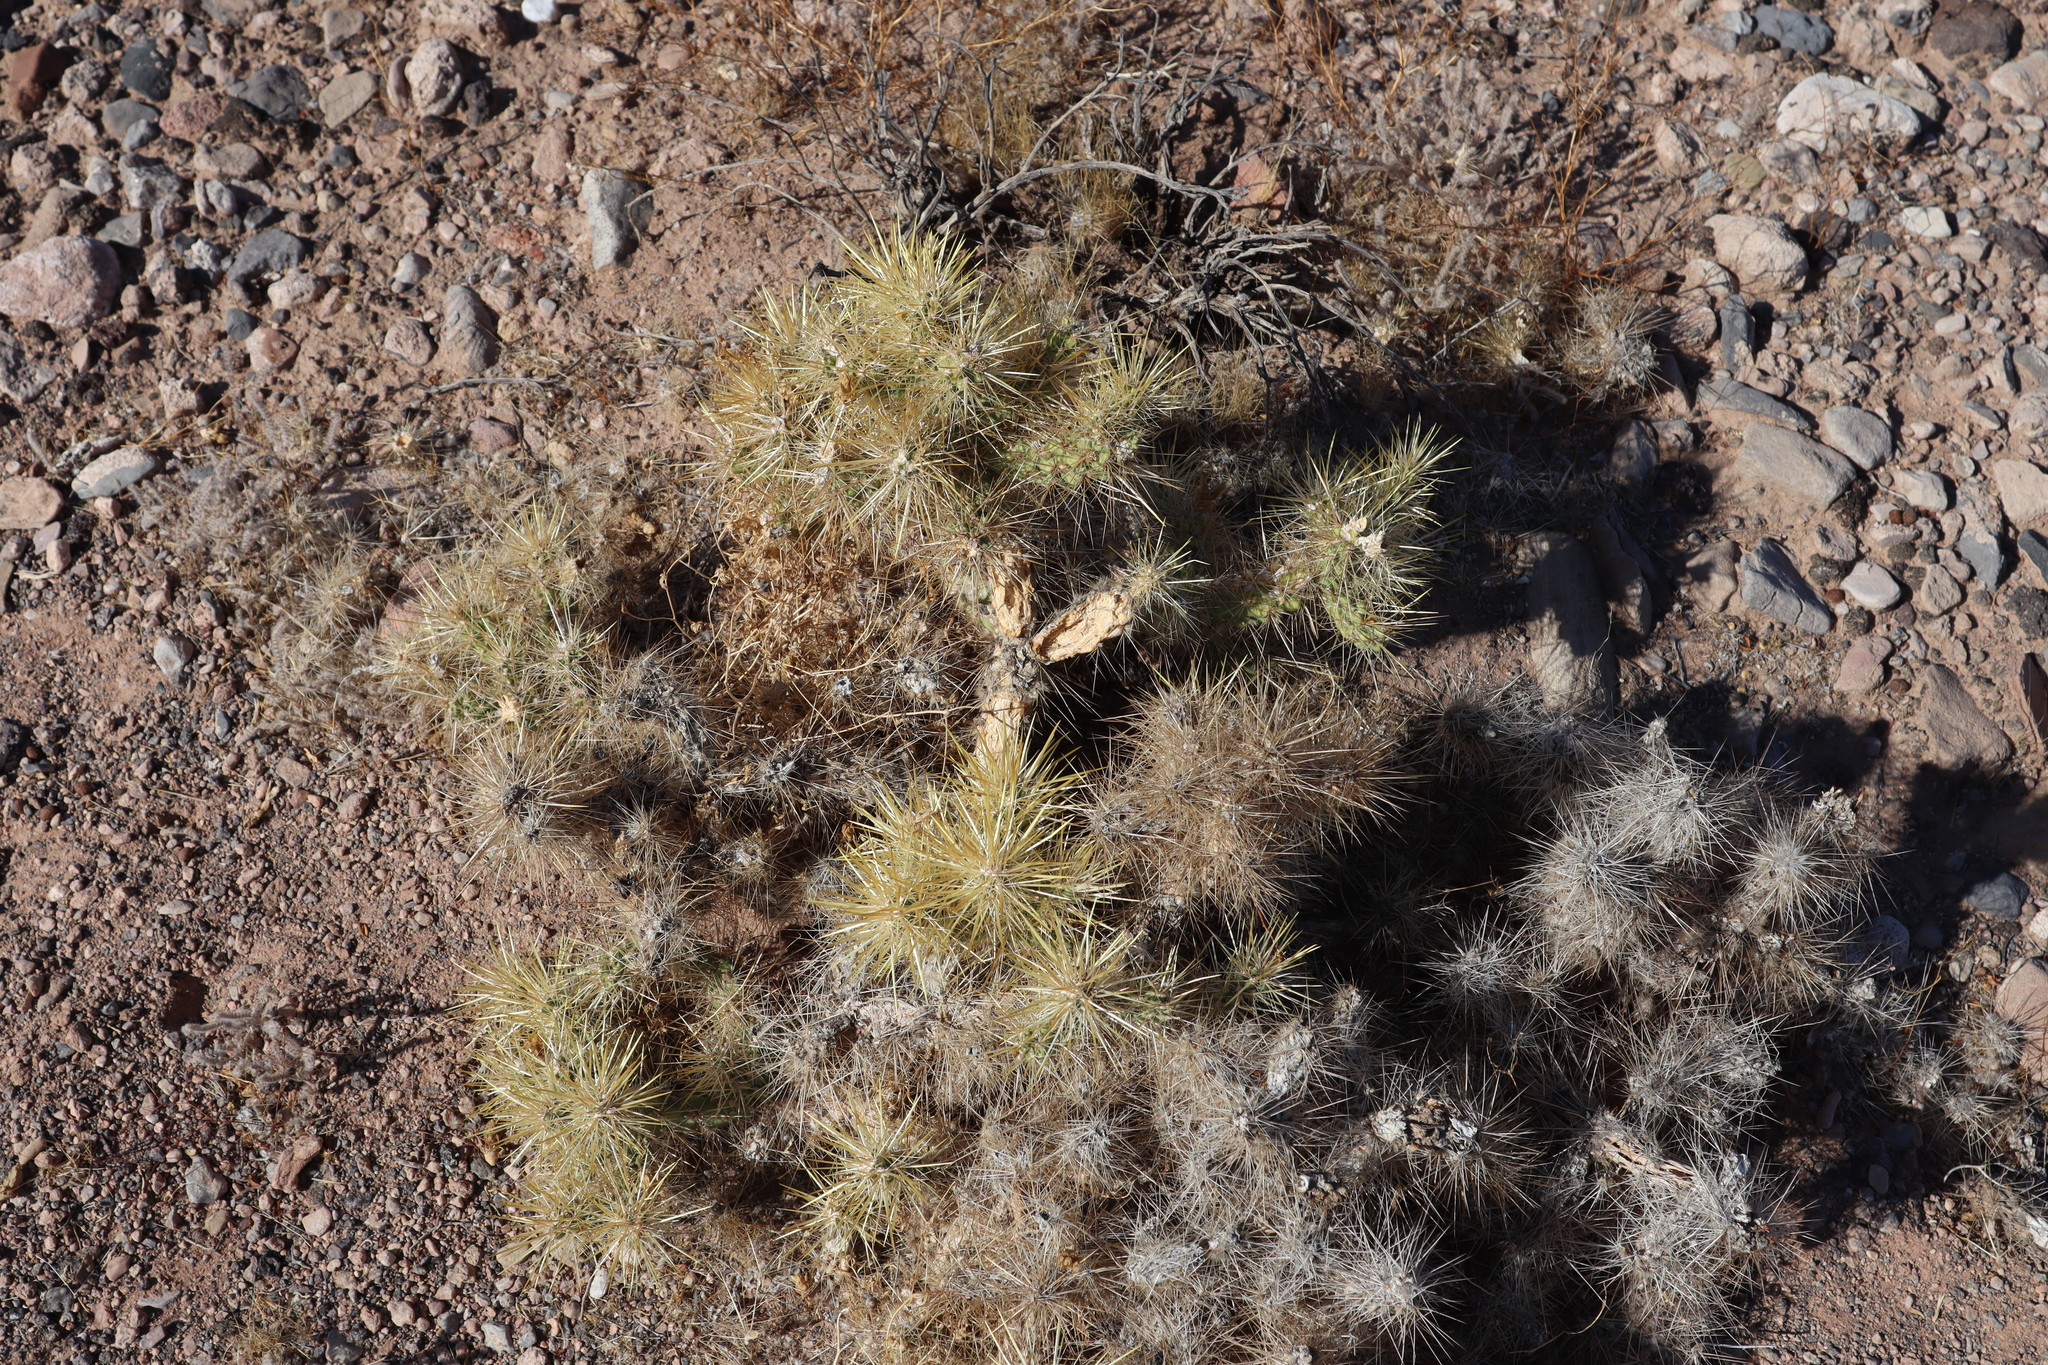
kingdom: Plantae
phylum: Tracheophyta
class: Magnoliopsida
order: Caryophyllales
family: Cactaceae
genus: Cylindropuntia
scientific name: Cylindropuntia echinocarpa
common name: Ground cholla
